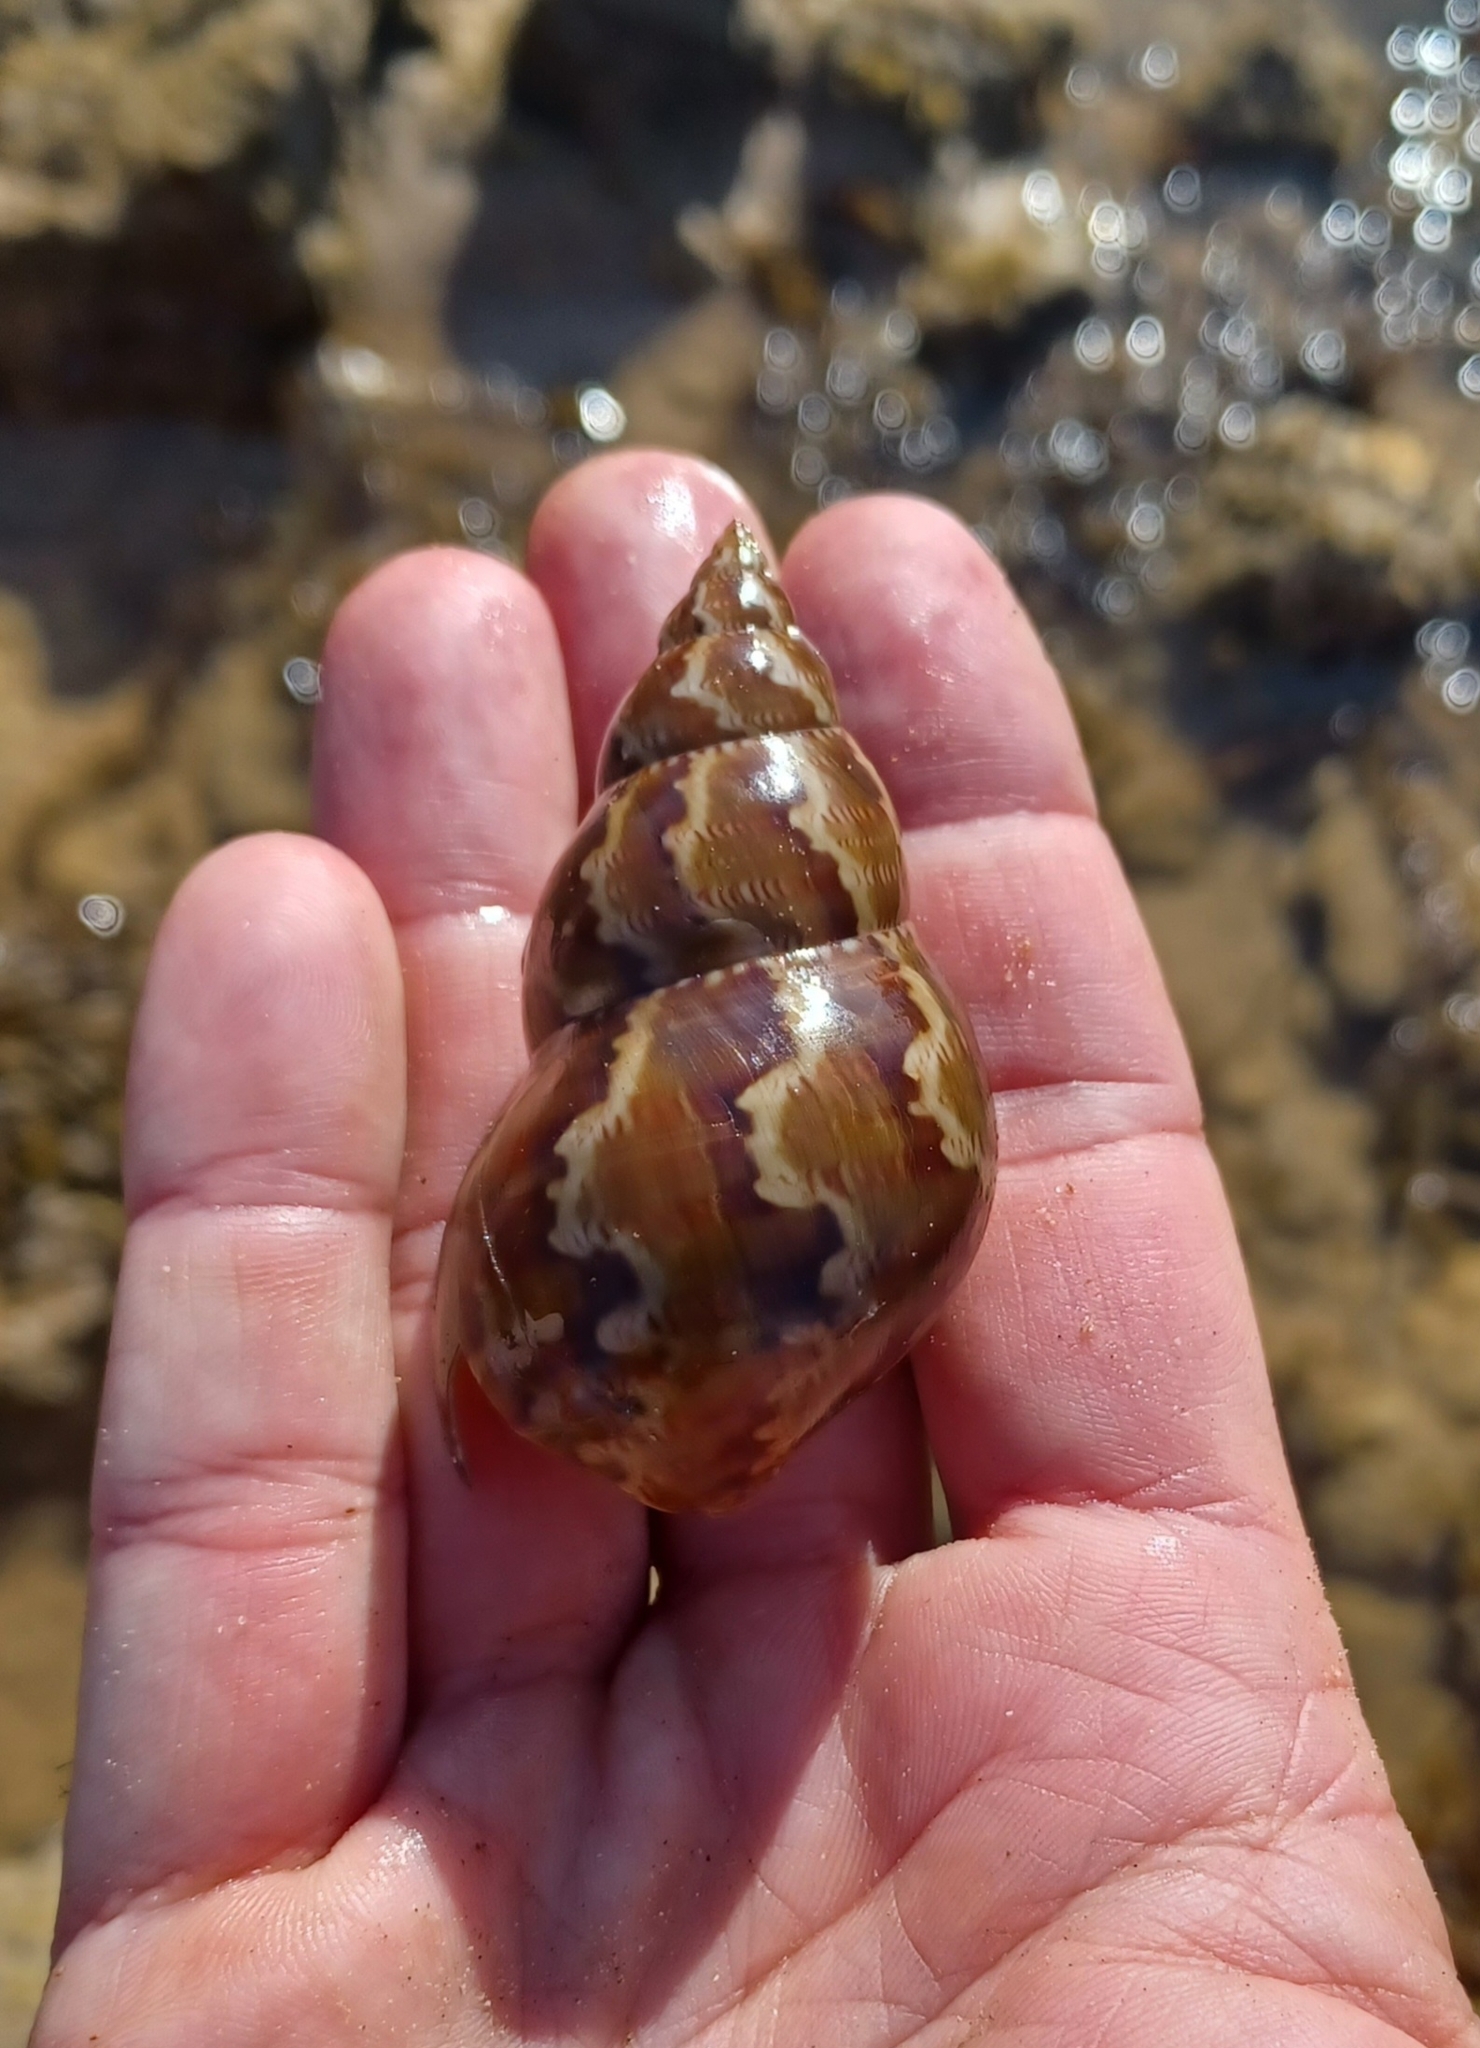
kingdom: Animalia
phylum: Mollusca
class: Gastropoda
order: Trochida
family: Phasianellidae
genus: Phasianella
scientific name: Phasianella australis
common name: Painted lady
